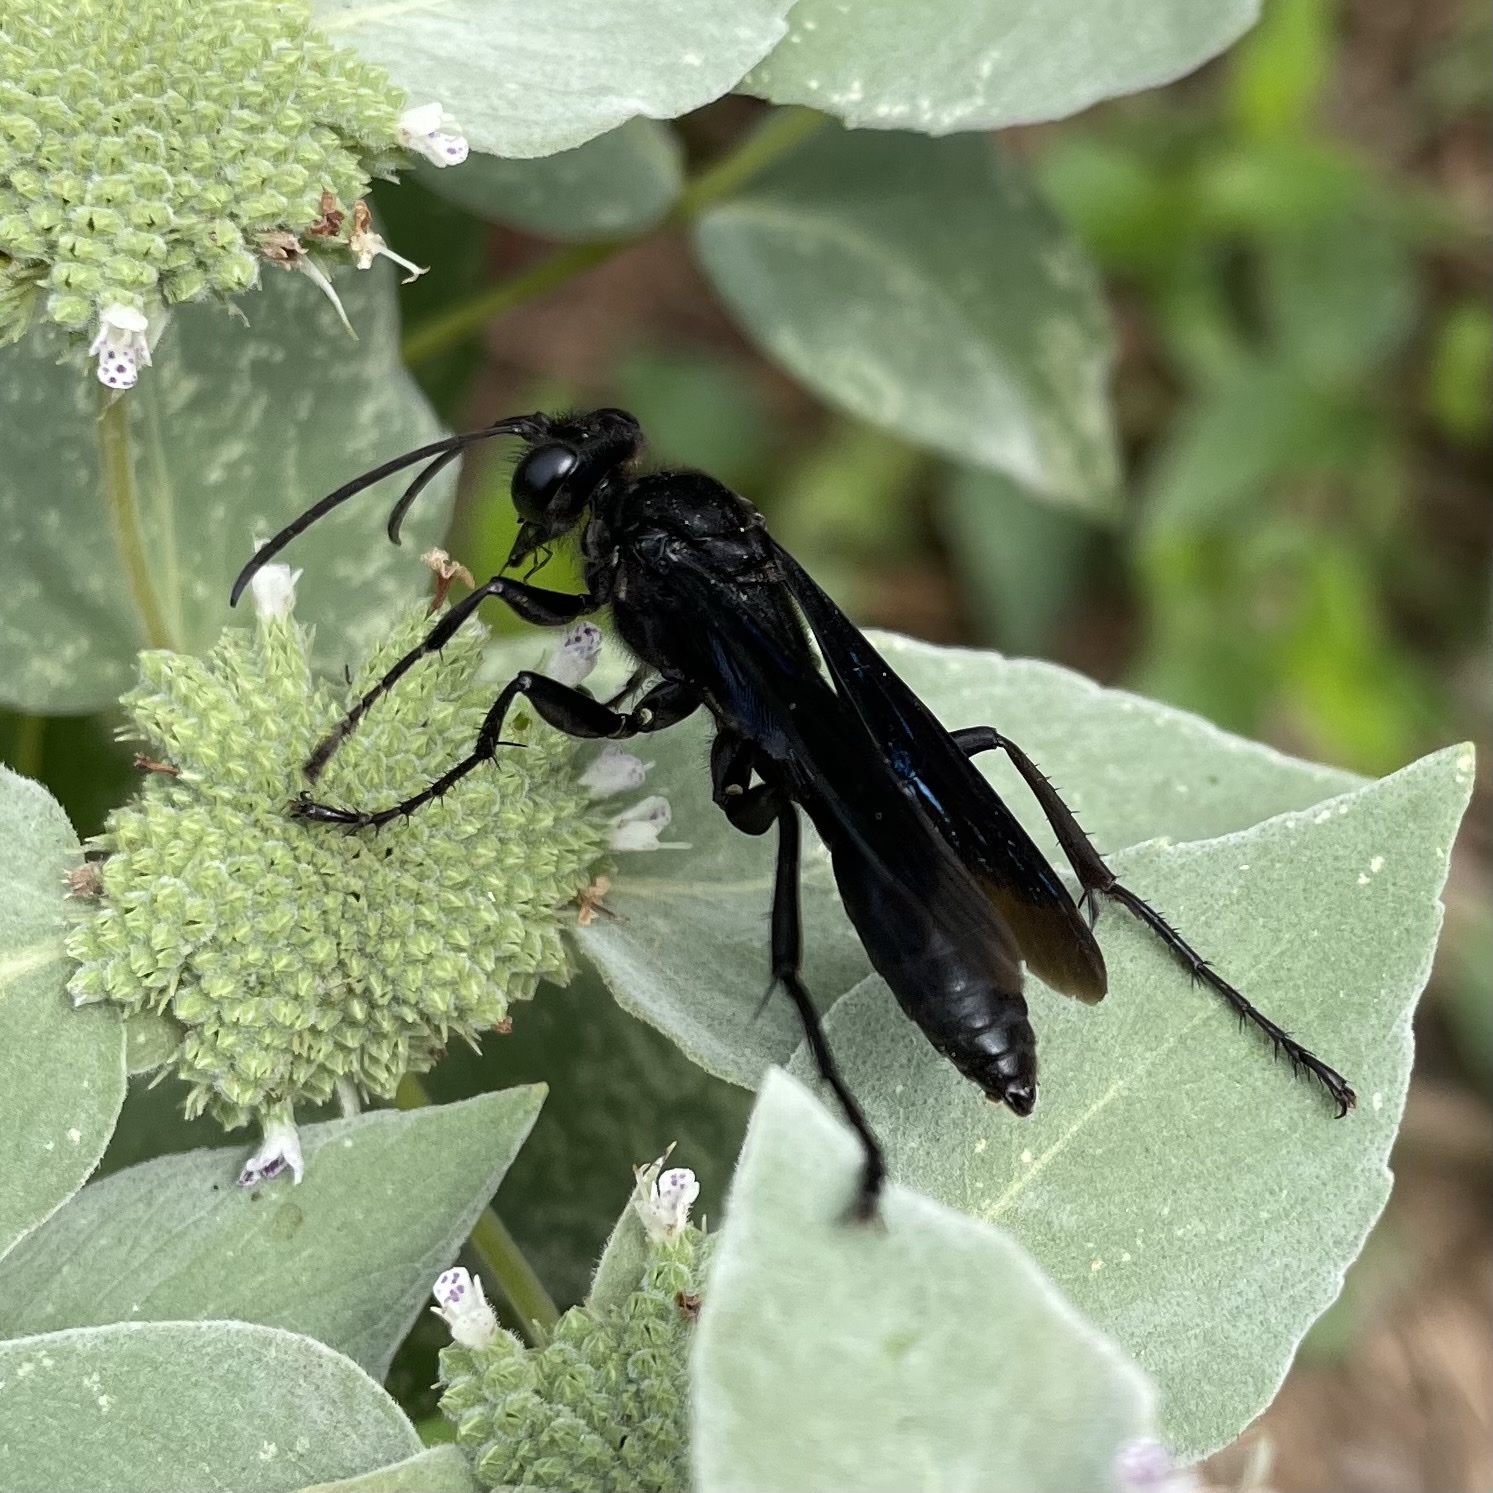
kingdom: Animalia
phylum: Arthropoda
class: Insecta
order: Hymenoptera
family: Sphecidae
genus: Sphex
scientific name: Sphex pensylvanicus
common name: Great black digger wasp
